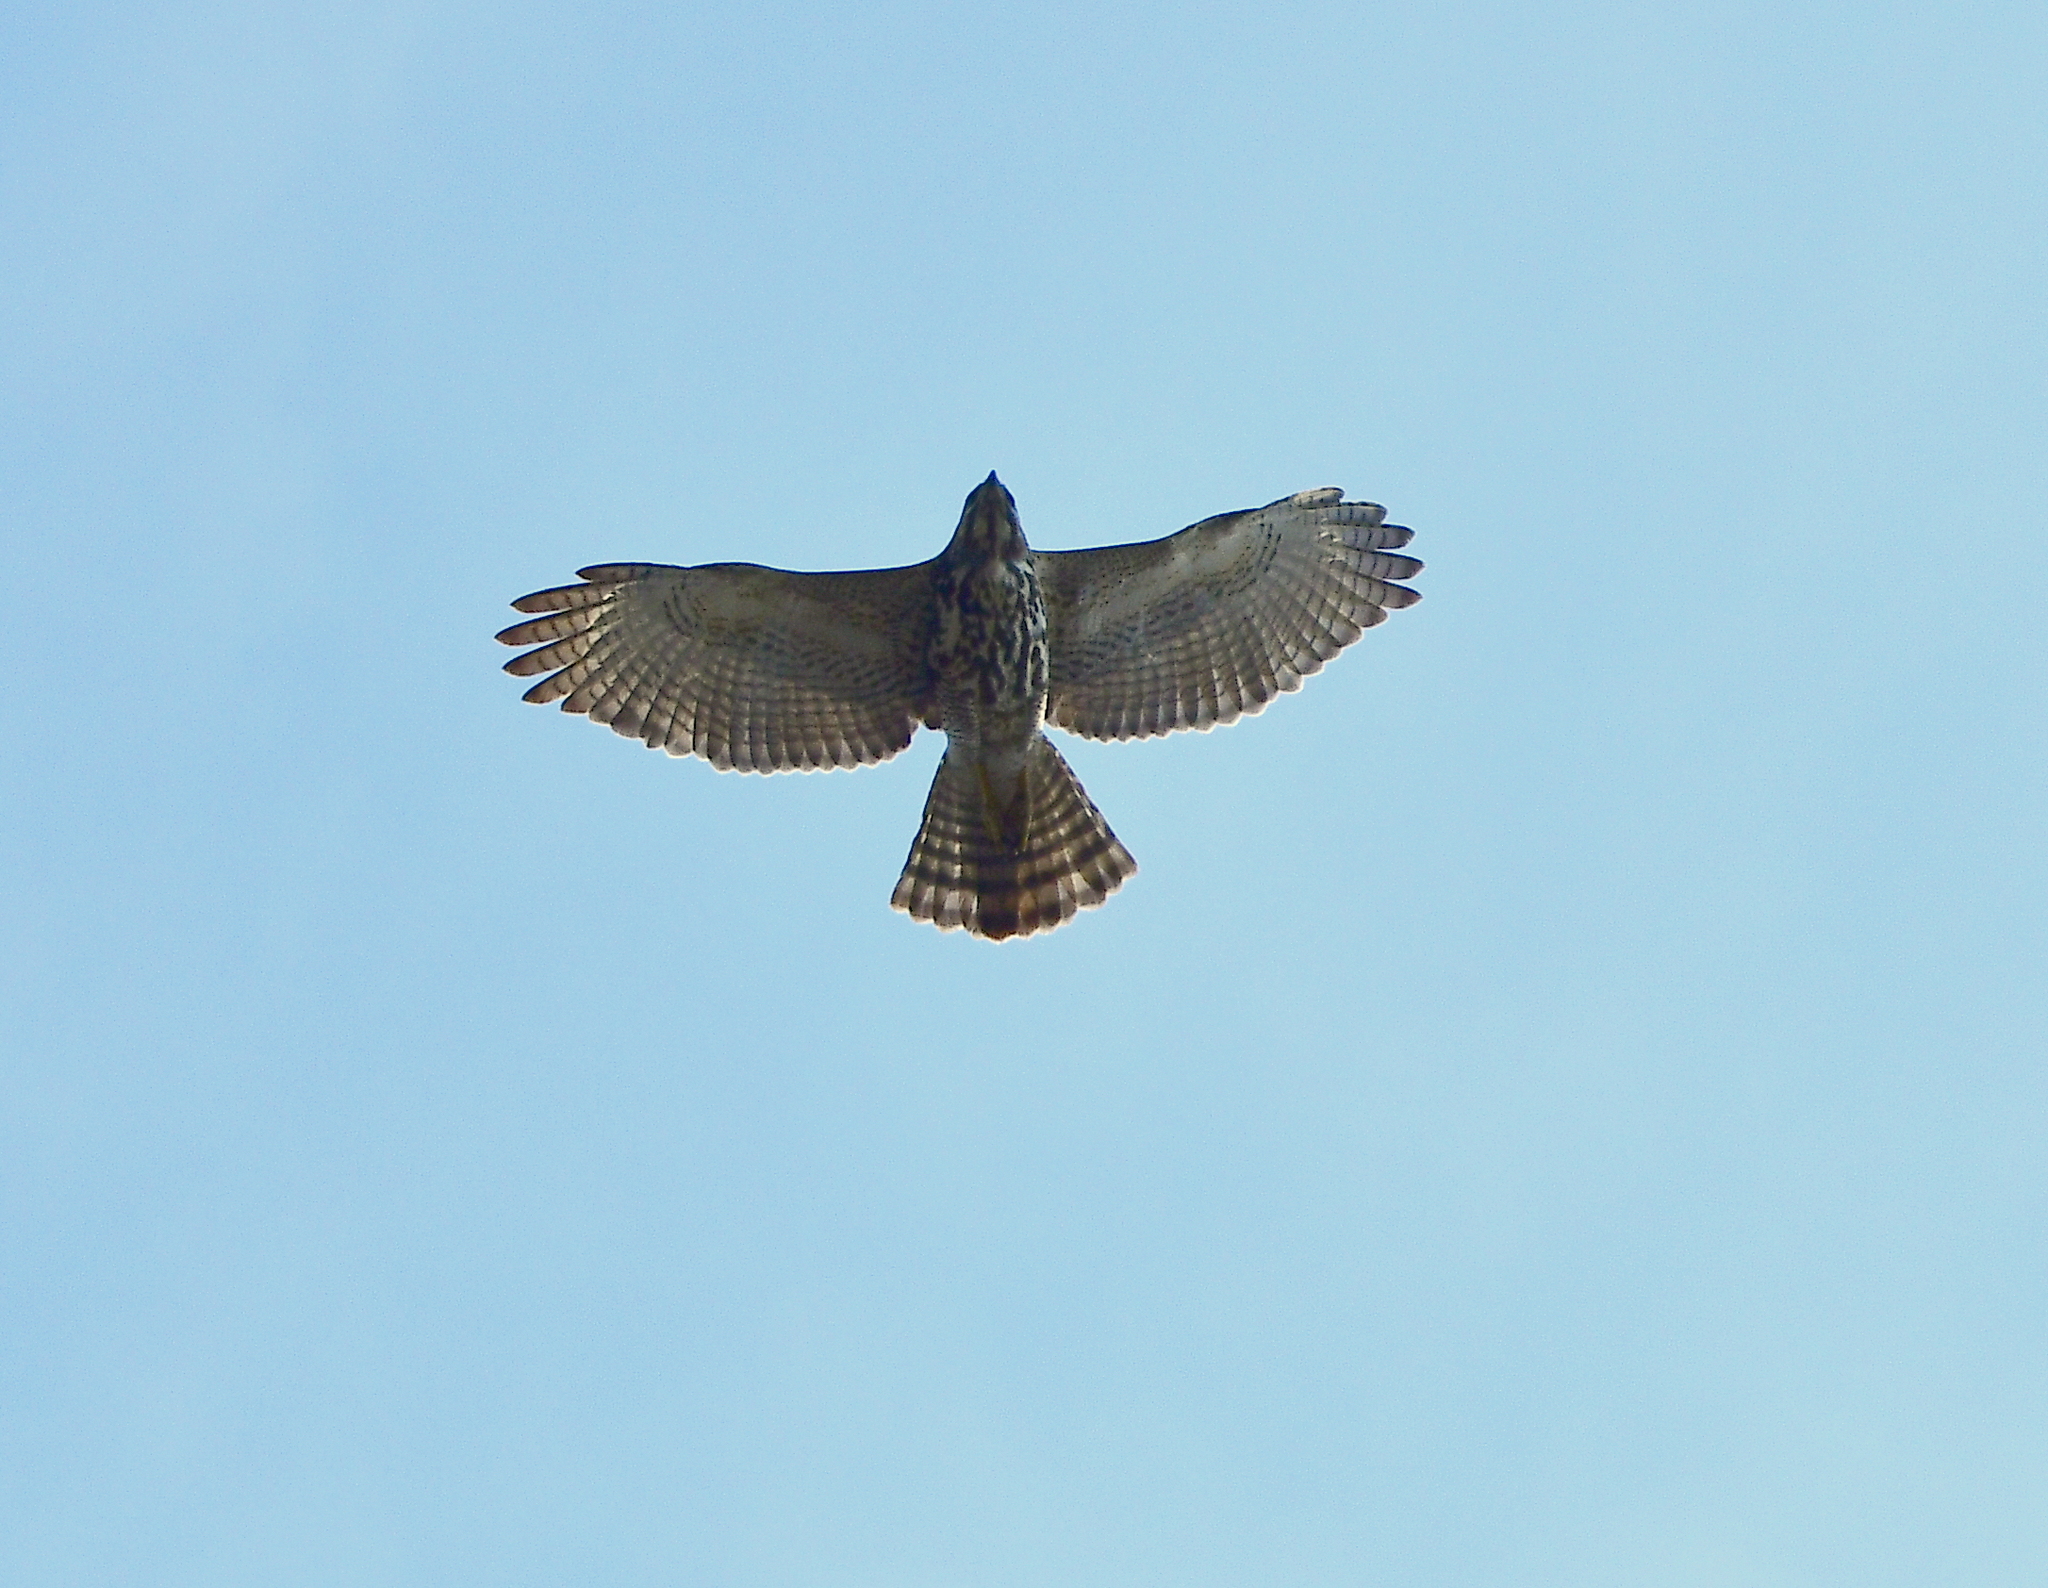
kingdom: Animalia
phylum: Chordata
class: Aves
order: Accipitriformes
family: Accipitridae
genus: Buteo
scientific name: Buteo nitidus
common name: Grey-lined hawk
